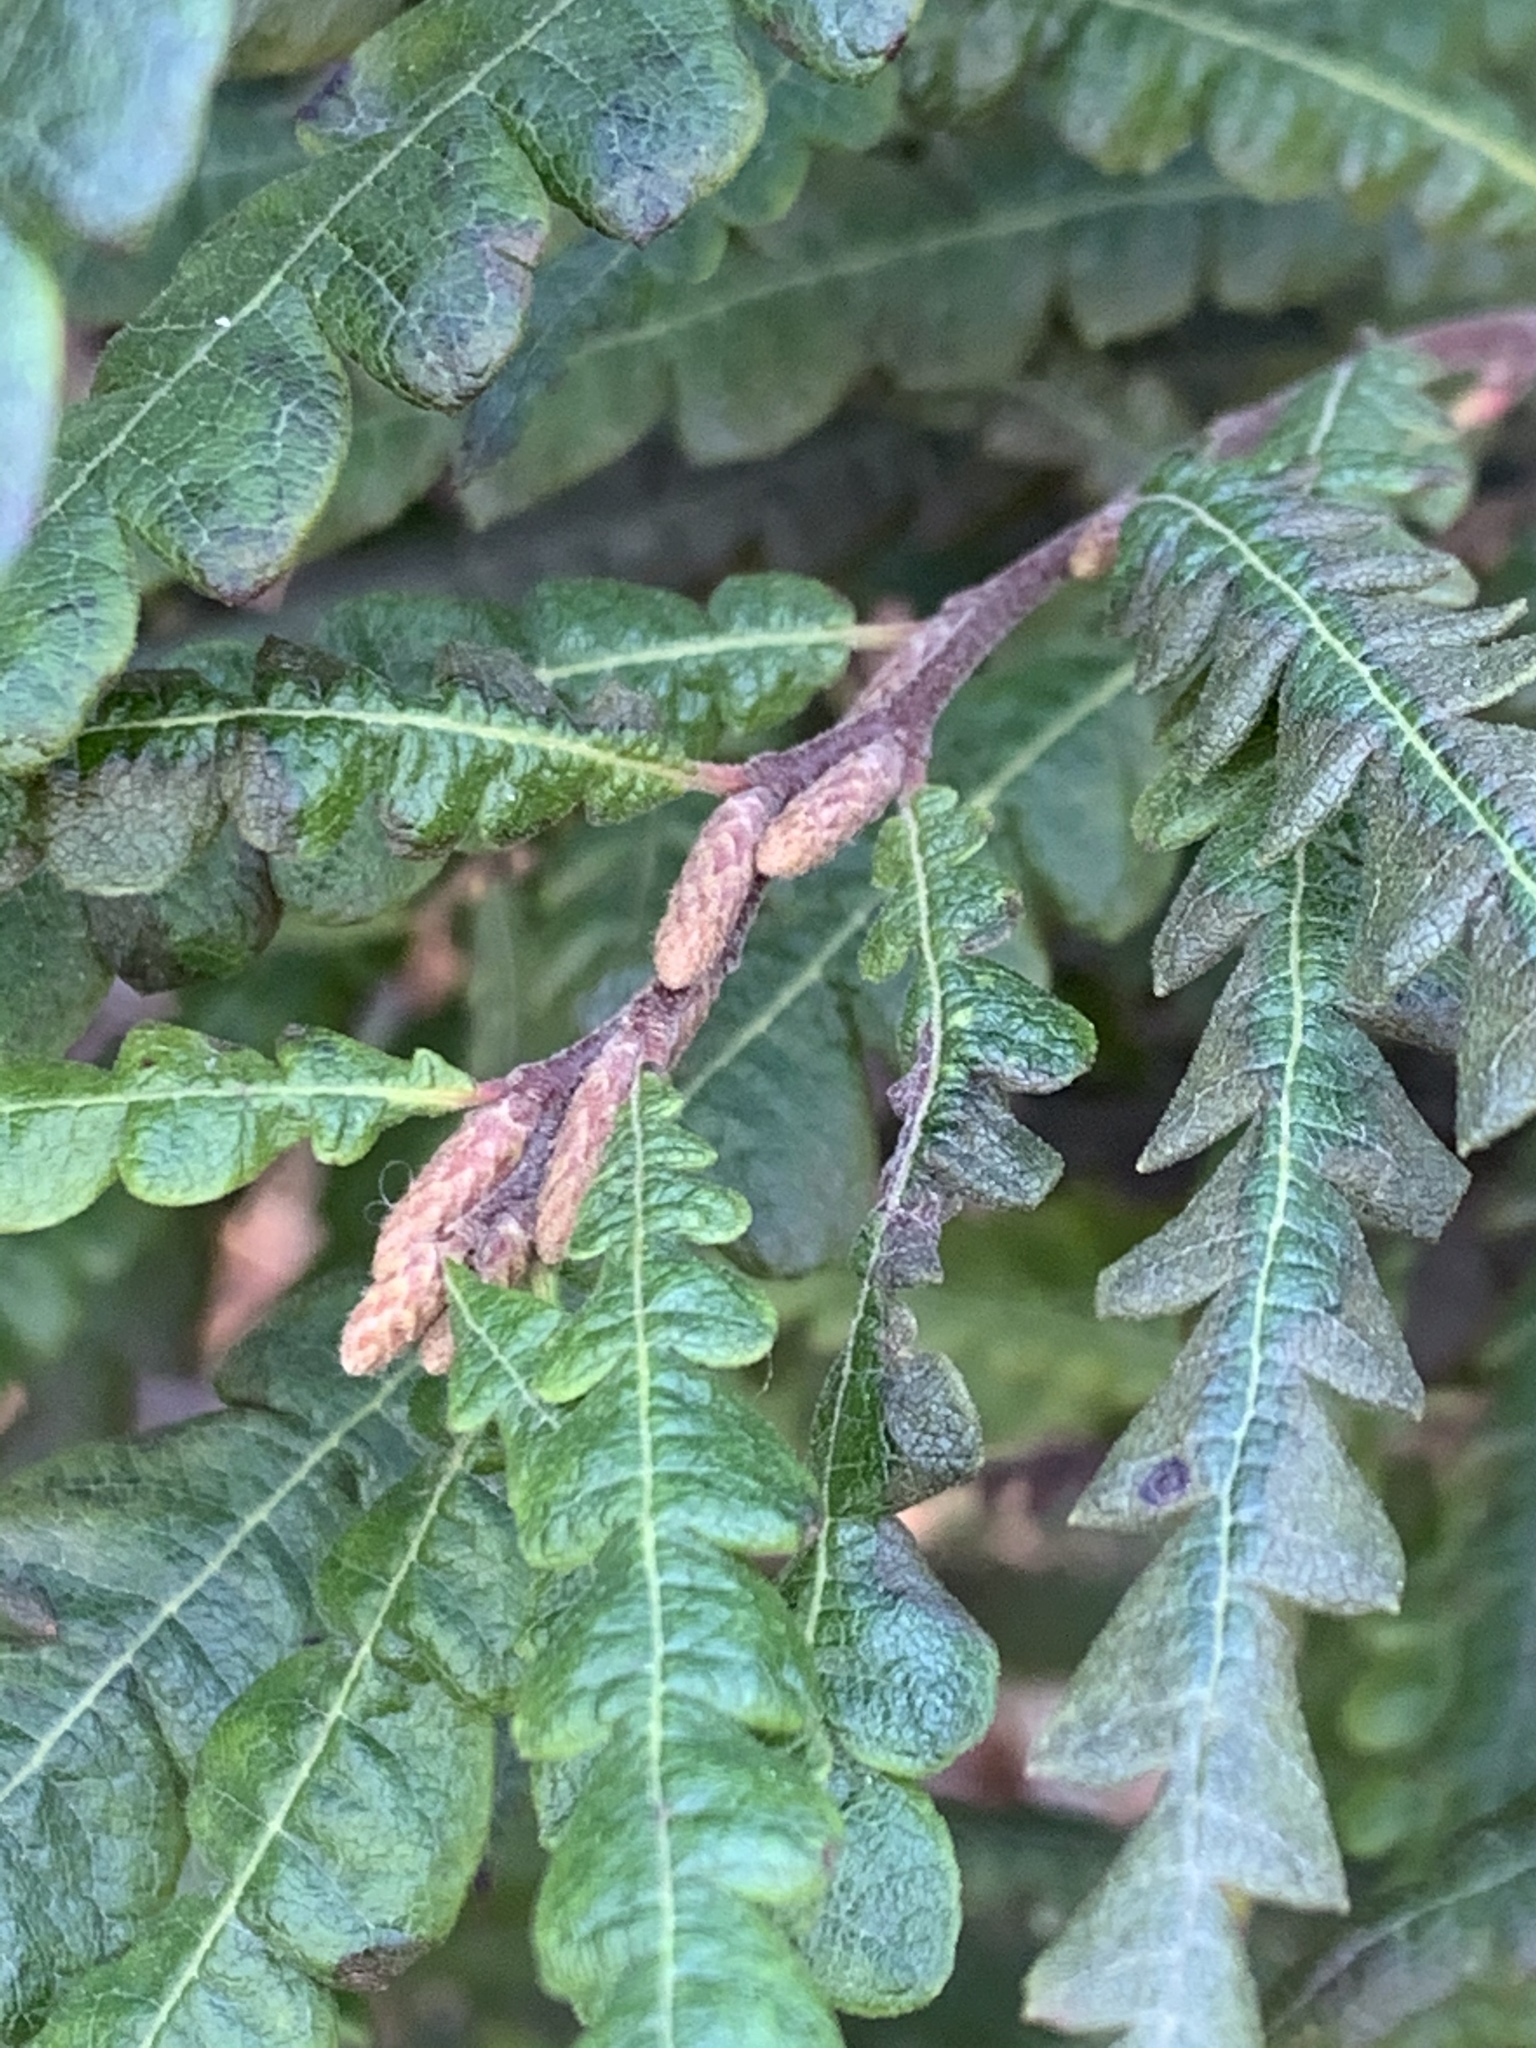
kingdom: Plantae
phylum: Tracheophyta
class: Magnoliopsida
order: Fagales
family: Myricaceae
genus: Comptonia
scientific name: Comptonia peregrina
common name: Sweet-fern
